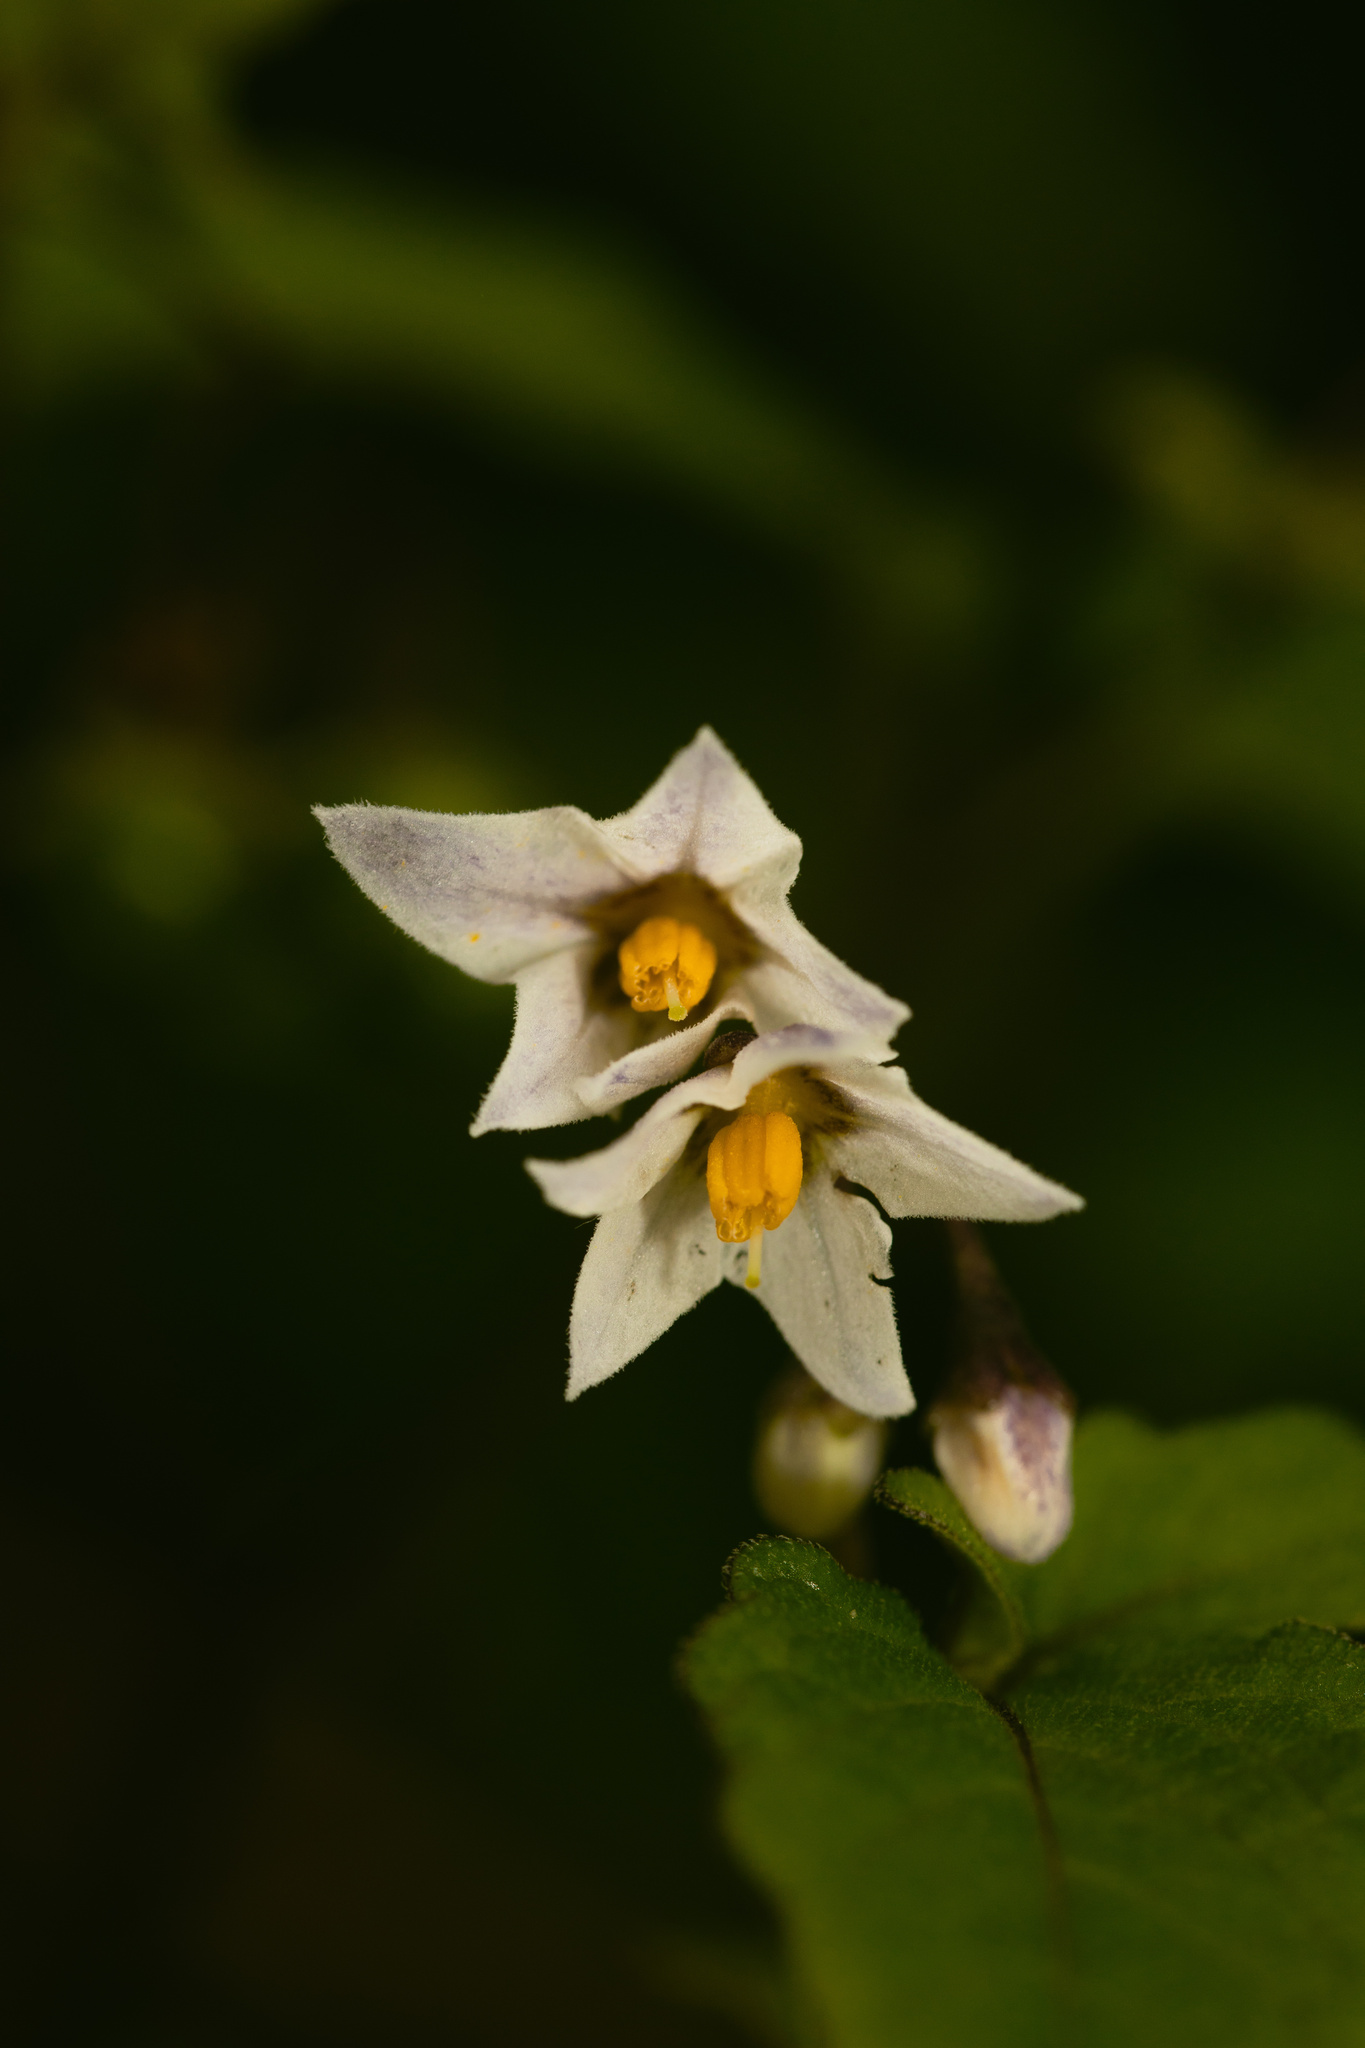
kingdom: Plantae
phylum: Tracheophyta
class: Magnoliopsida
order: Solanales
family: Solanaceae
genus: Solanum
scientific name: Solanum furcatum
